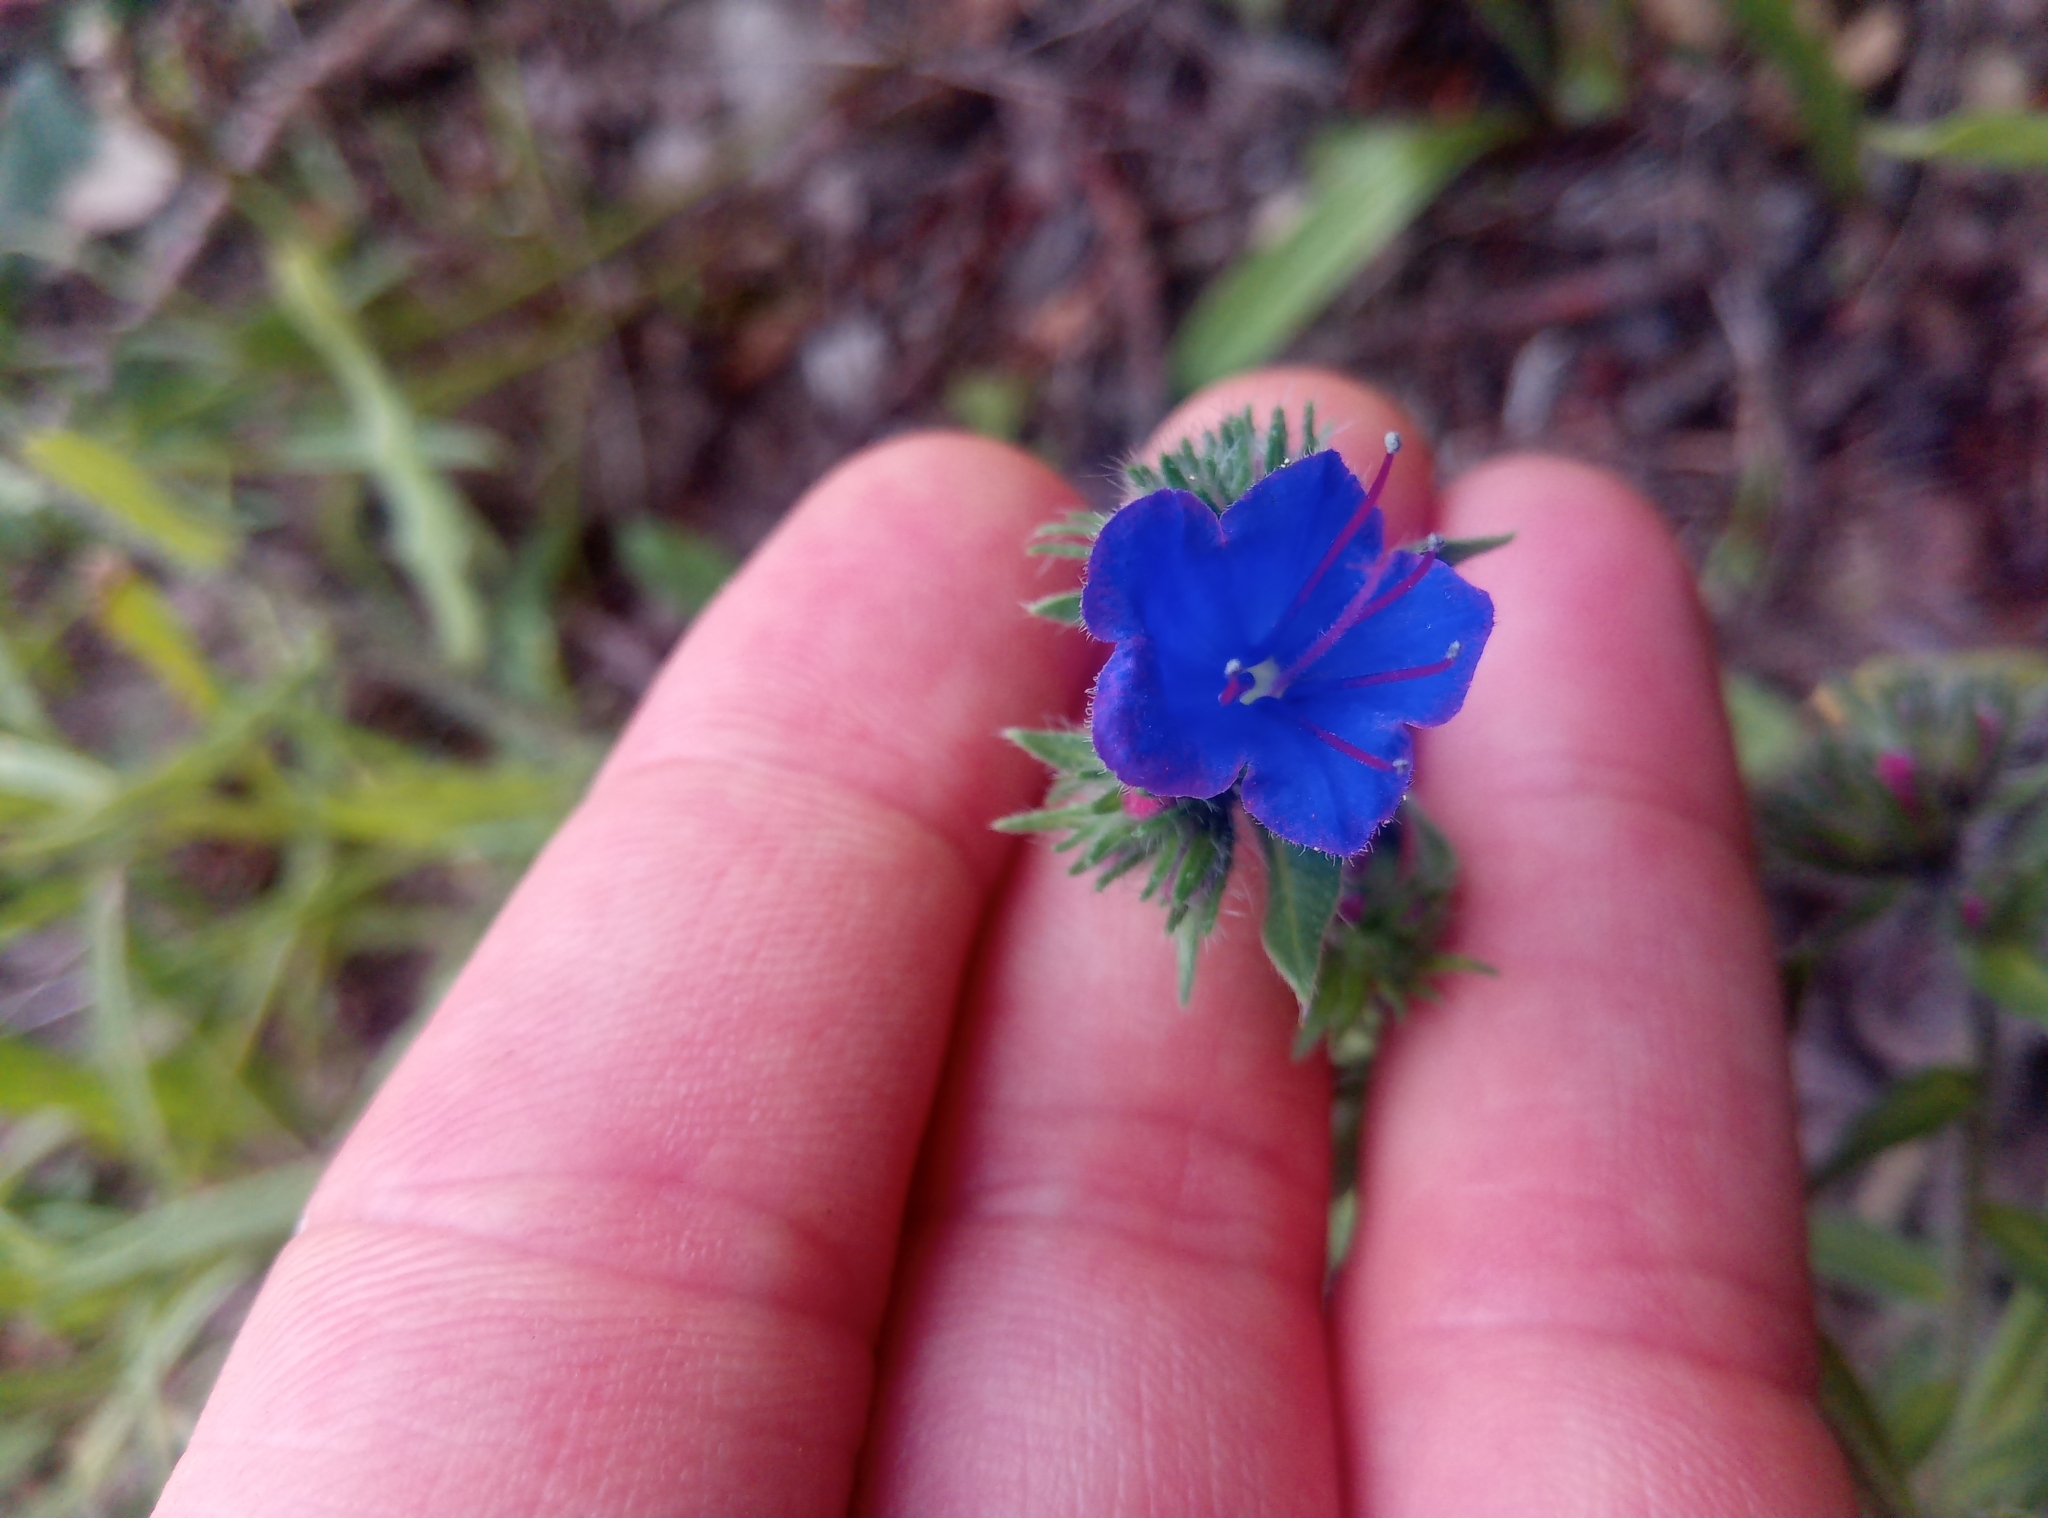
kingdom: Plantae
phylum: Tracheophyta
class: Magnoliopsida
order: Boraginales
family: Boraginaceae
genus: Echium
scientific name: Echium vulgare
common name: Common viper's bugloss
